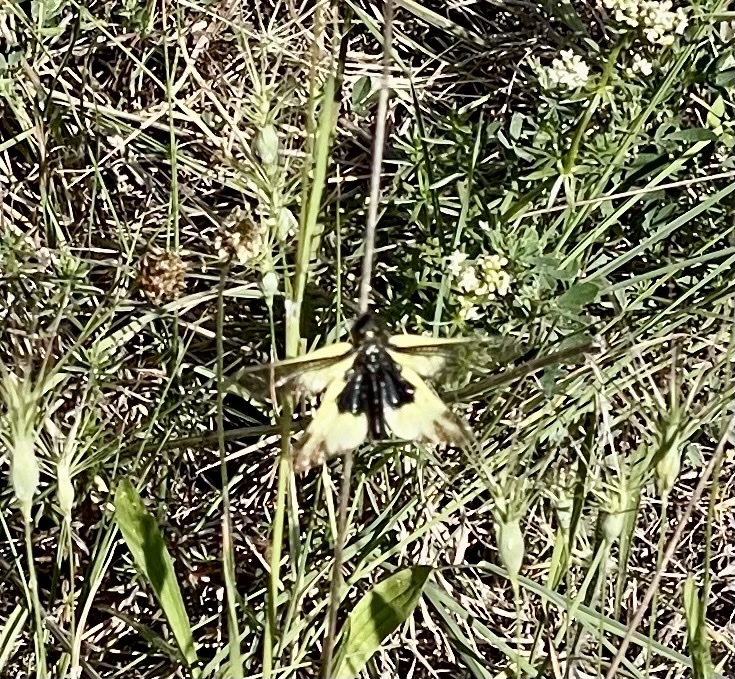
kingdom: Animalia
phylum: Arthropoda
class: Insecta
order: Neuroptera
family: Ascalaphidae
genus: Libelloides
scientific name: Libelloides cunii
